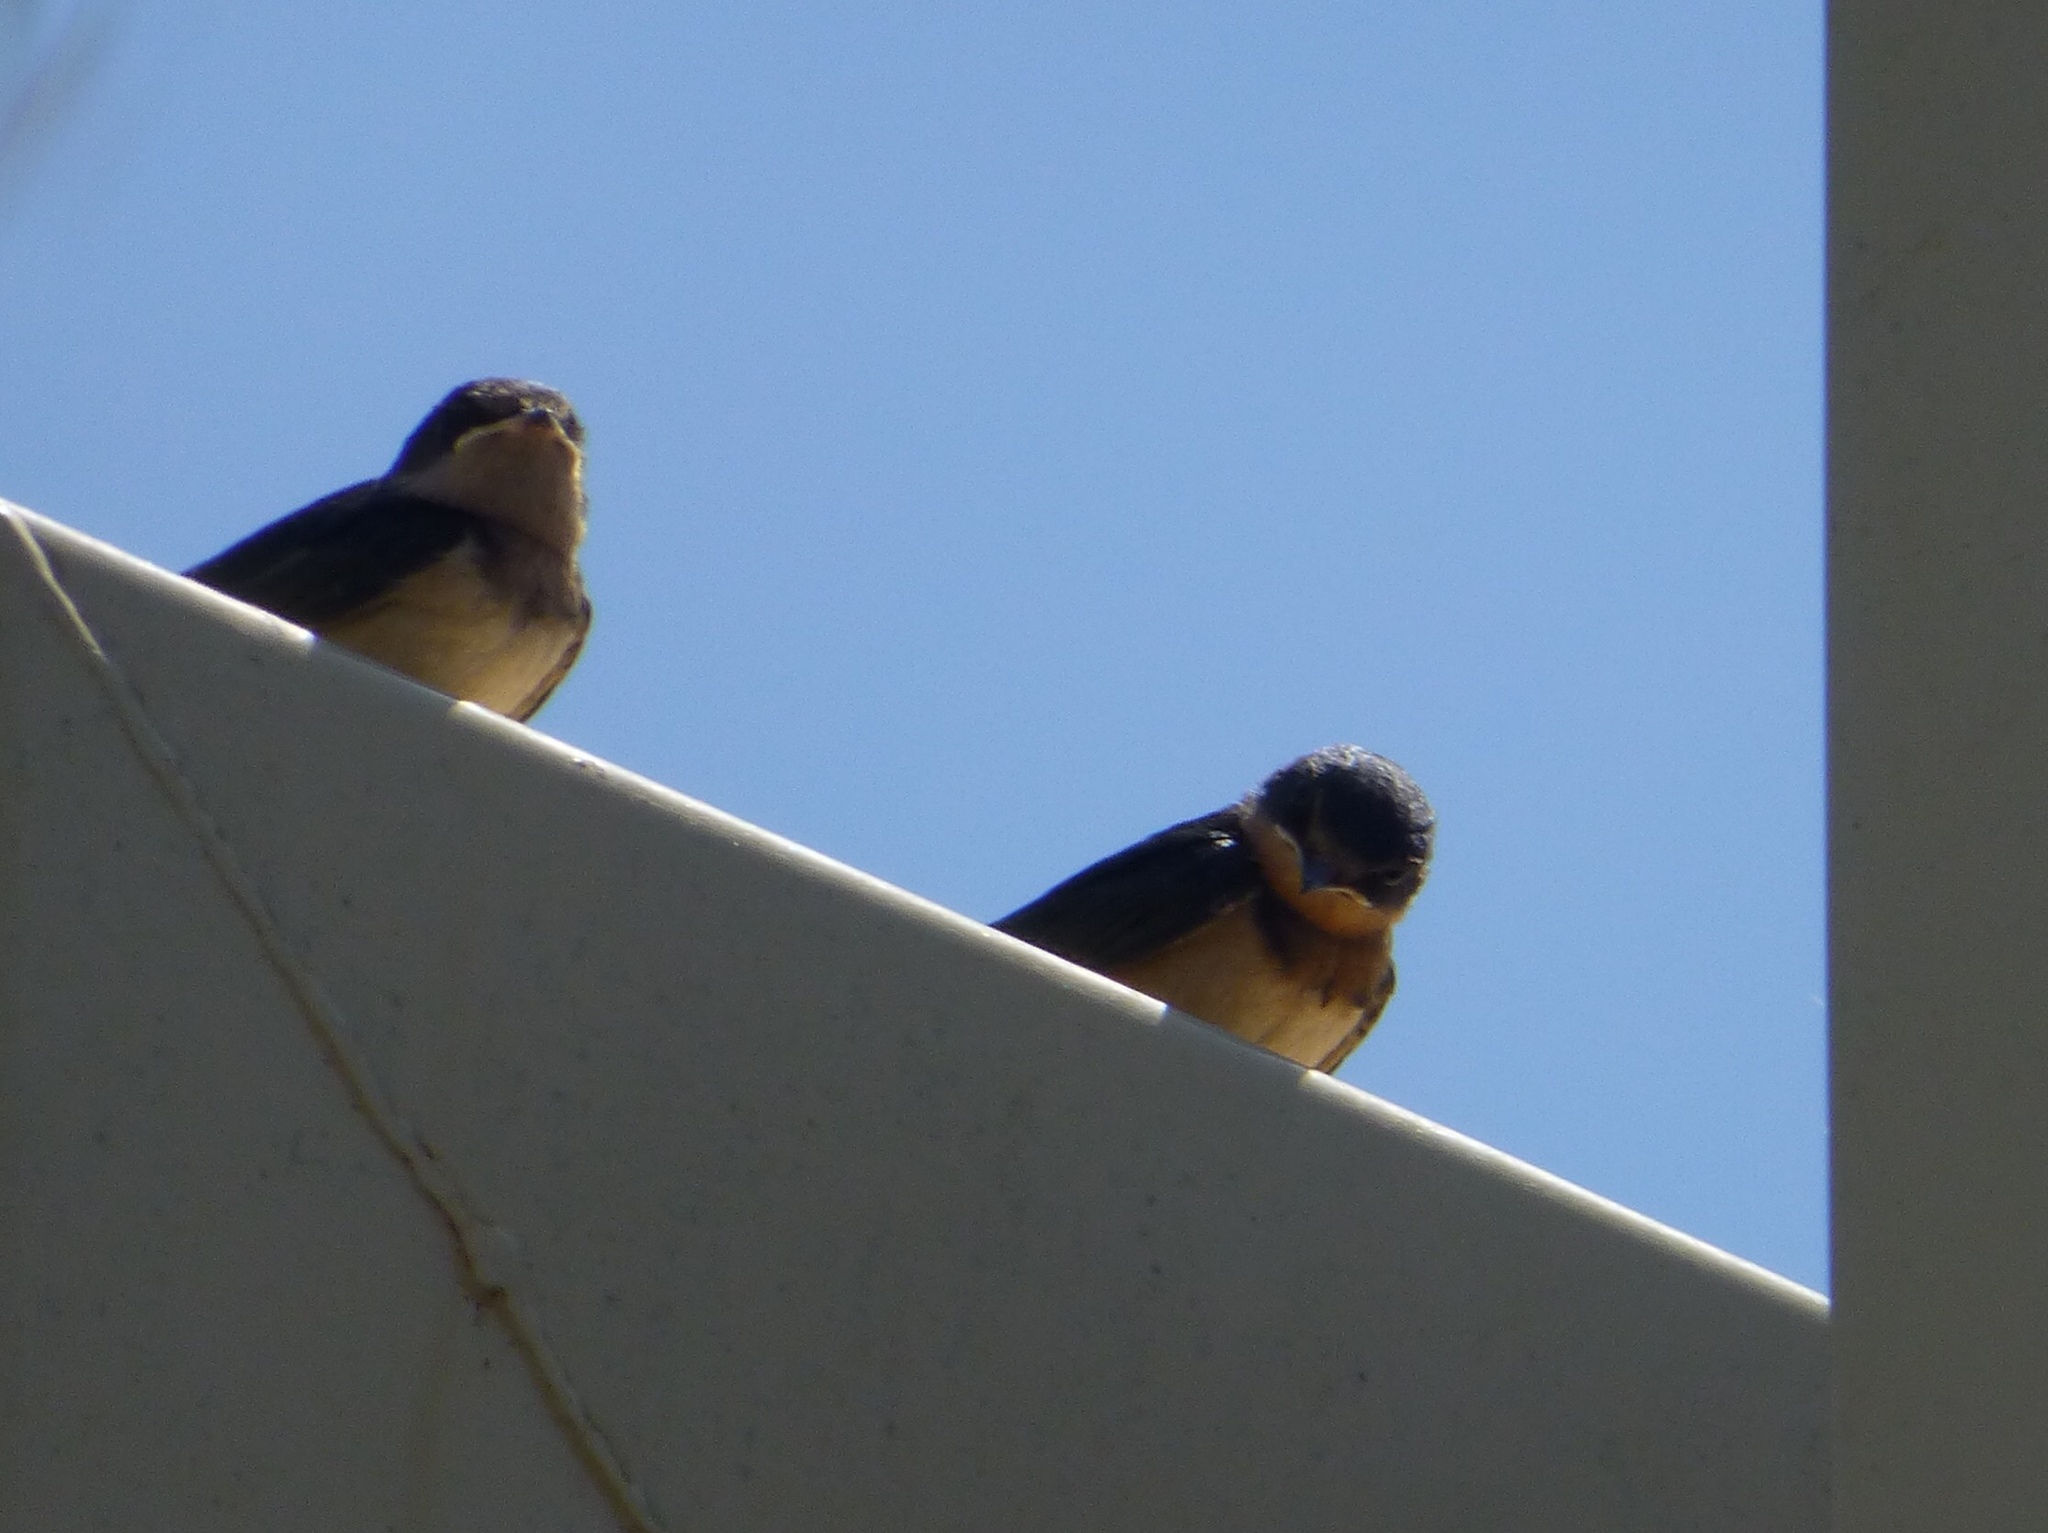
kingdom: Animalia
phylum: Chordata
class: Aves
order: Passeriformes
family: Hirundinidae
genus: Hirundo
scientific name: Hirundo rustica
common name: Barn swallow
